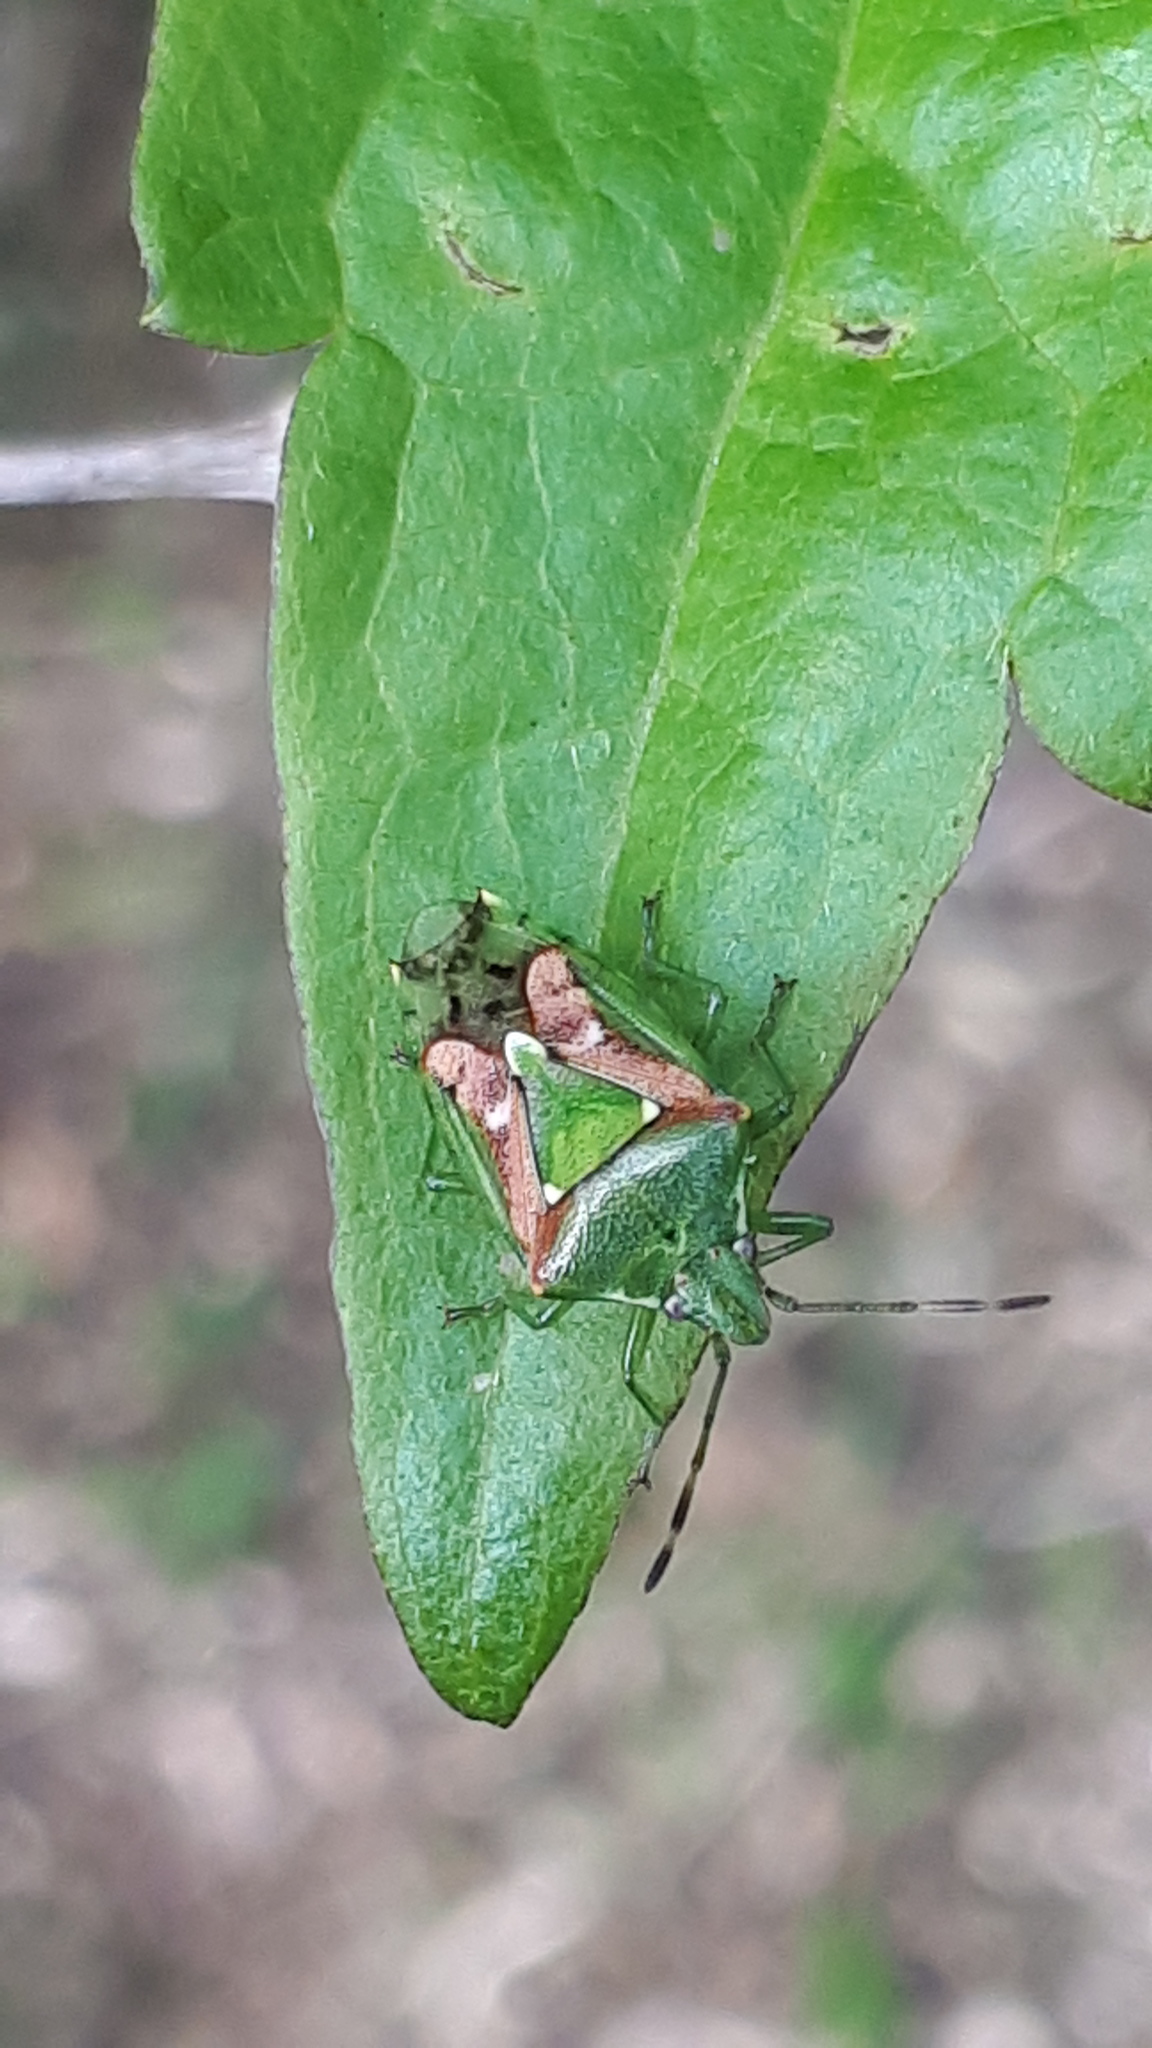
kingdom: Animalia
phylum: Arthropoda
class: Insecta
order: Hemiptera
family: Acanthosomatidae
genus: Cyphostethus
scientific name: Cyphostethus tristriatus
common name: Juniper shieldbug
